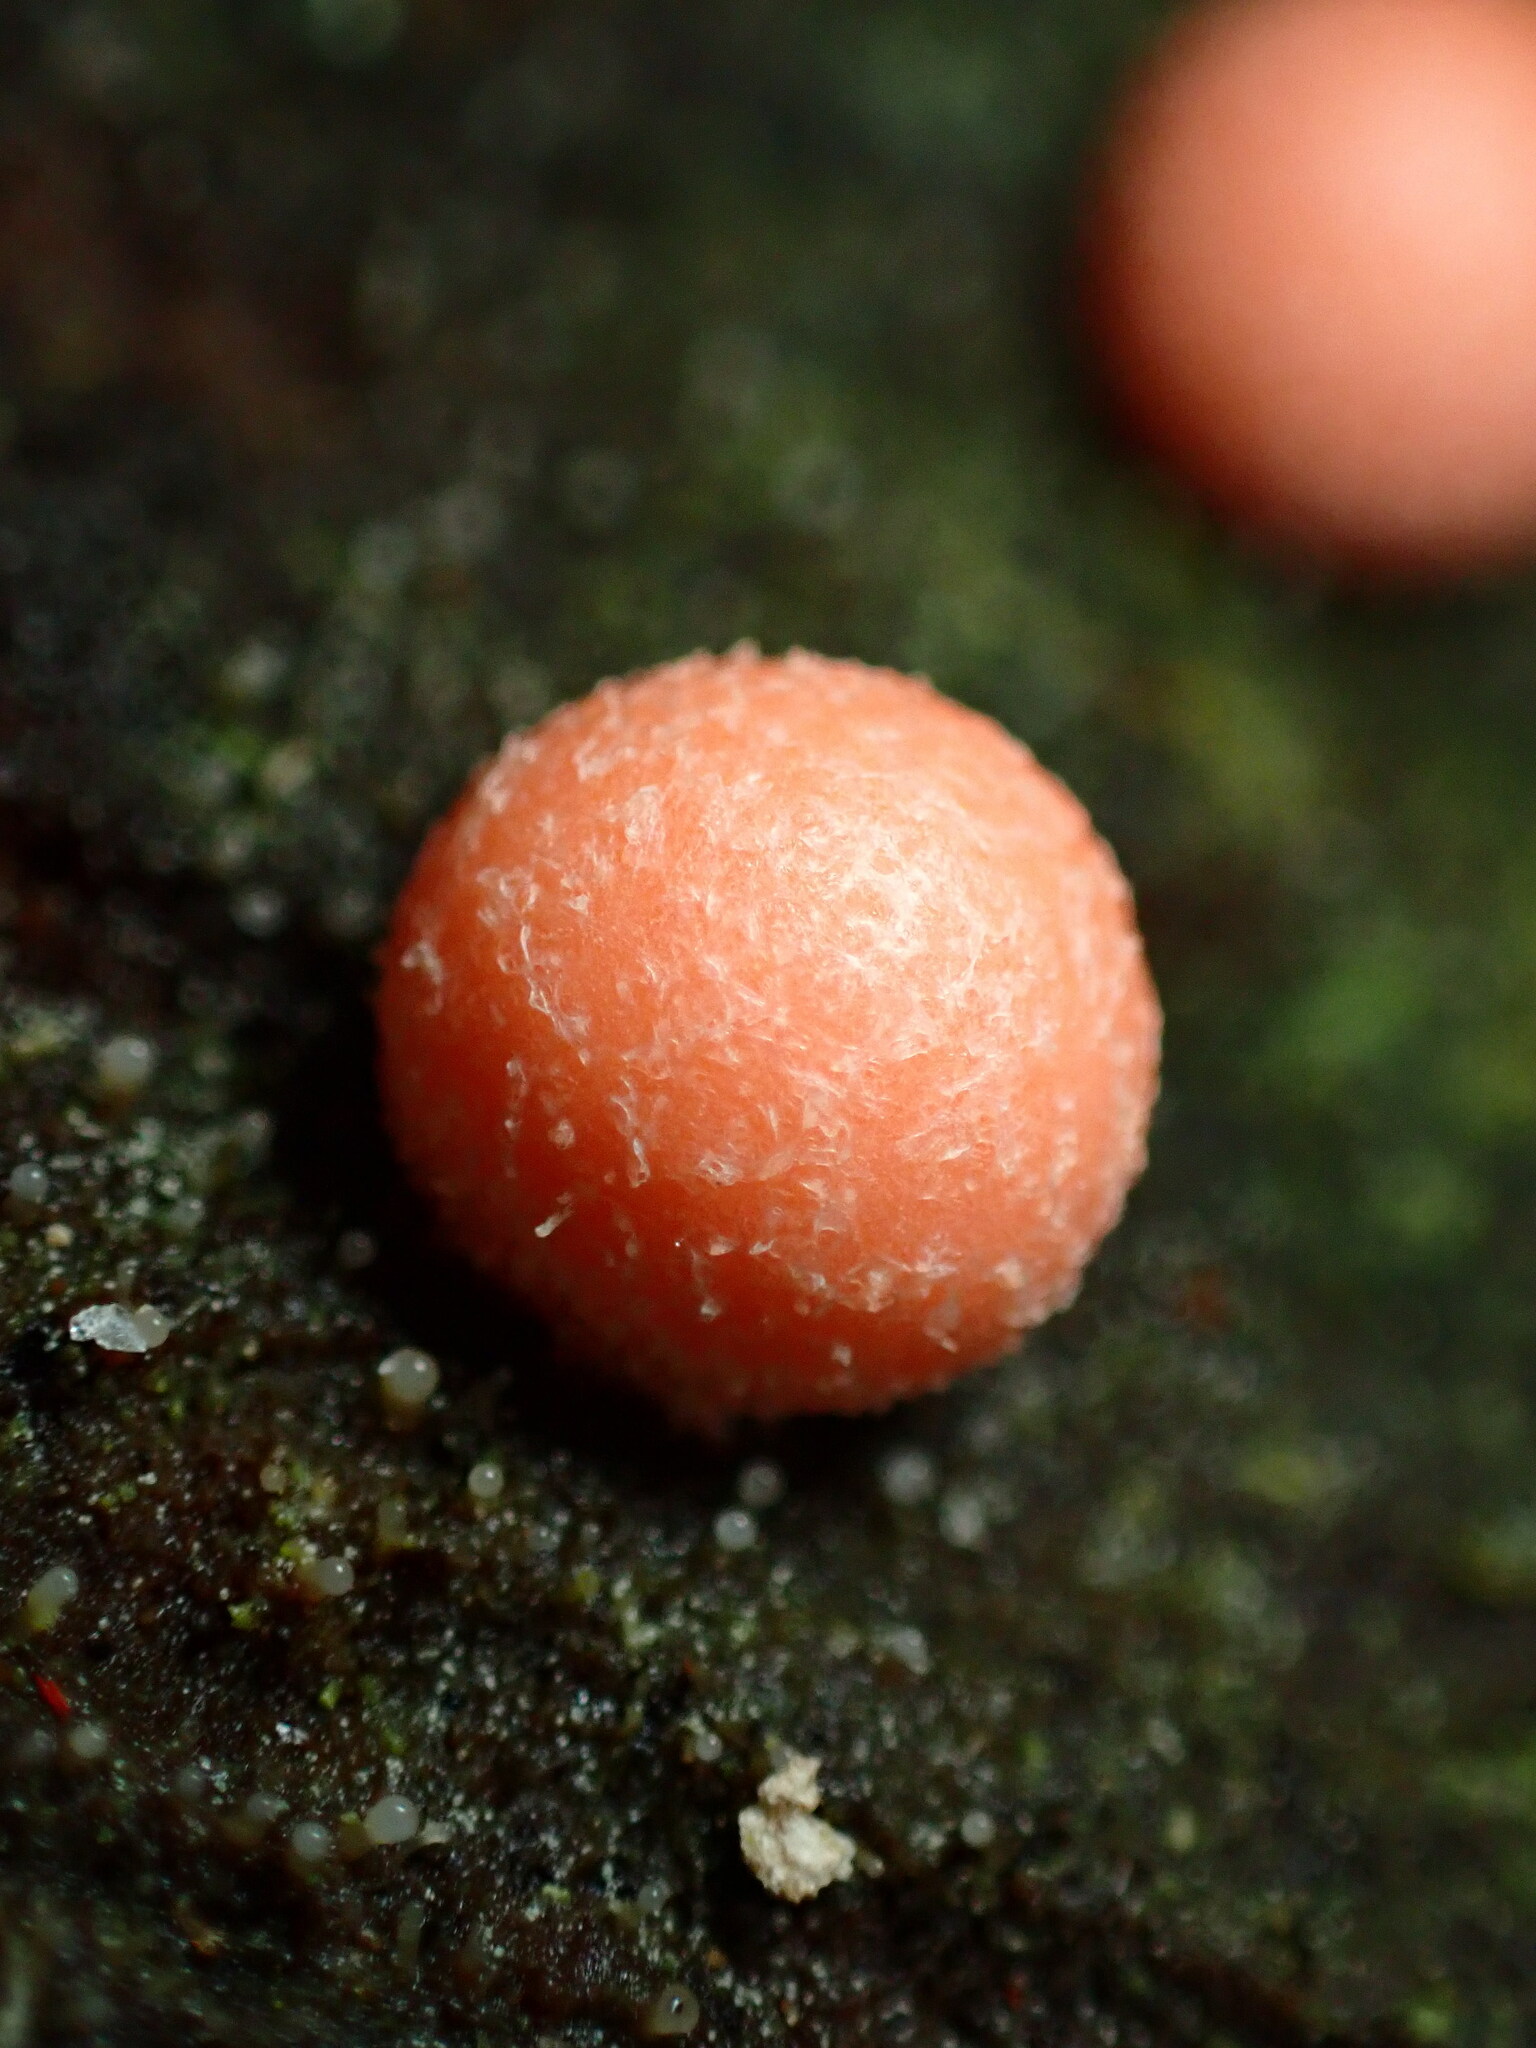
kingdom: Protozoa
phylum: Mycetozoa
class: Myxomycetes
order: Cribrariales
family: Tubiferaceae
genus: Lycogala
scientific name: Lycogala epidendrum
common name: Wolf's milk
